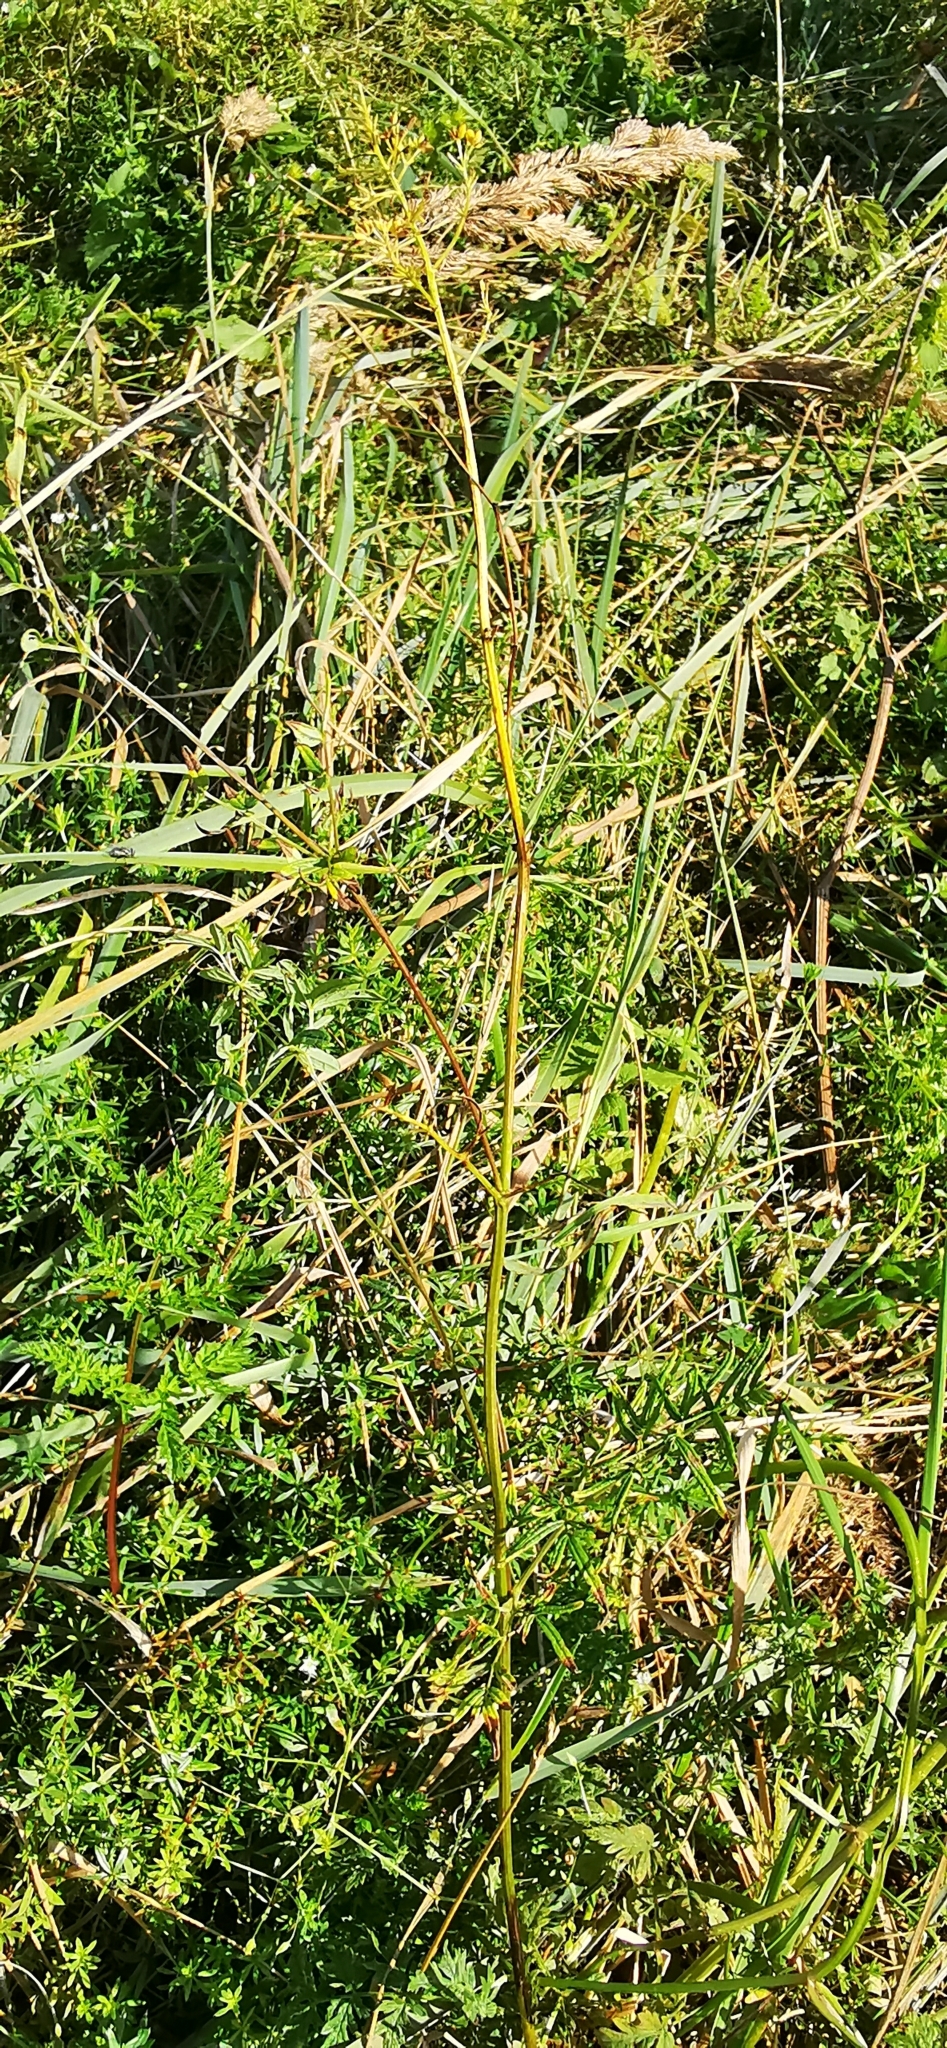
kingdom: Plantae
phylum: Tracheophyta
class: Magnoliopsida
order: Ranunculales
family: Ranunculaceae
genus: Thalictrum
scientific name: Thalictrum lucidum
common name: Shining meadow-rue
